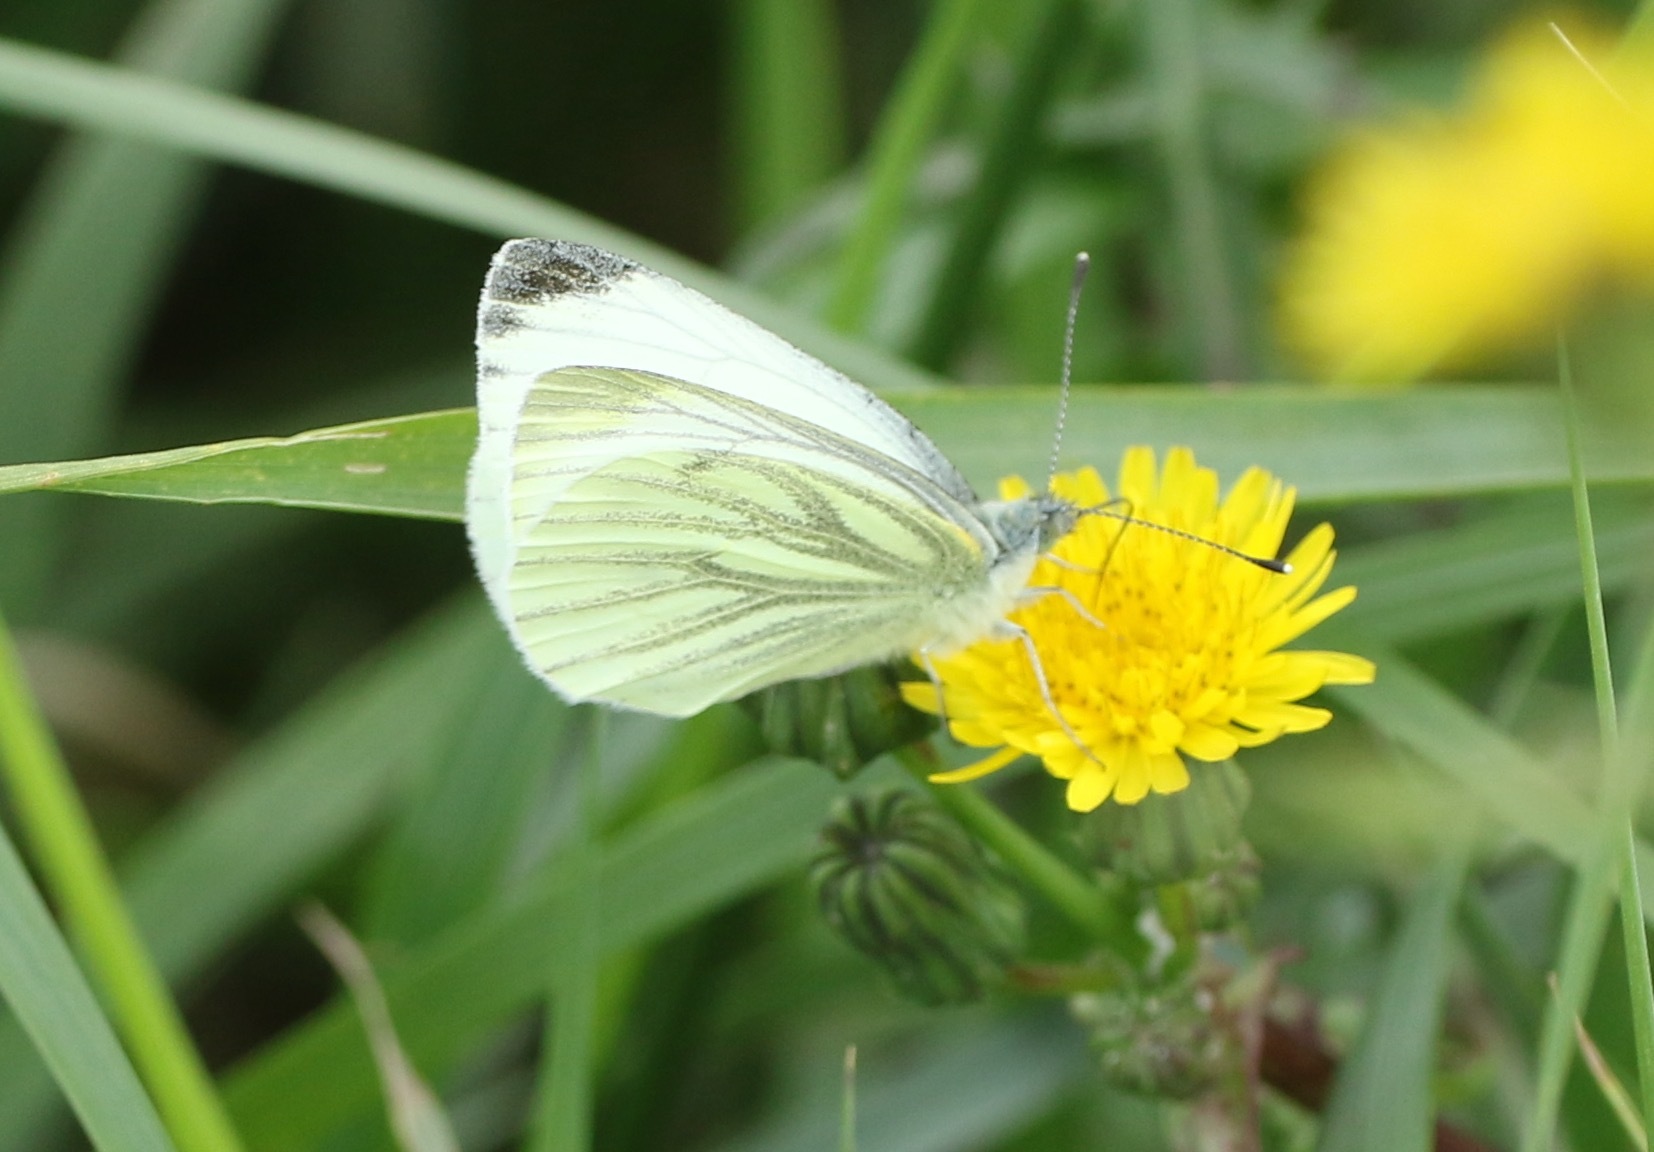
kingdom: Animalia
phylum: Arthropoda
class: Insecta
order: Lepidoptera
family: Pieridae
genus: Pieris
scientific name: Pieris napi
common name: Green-veined white
